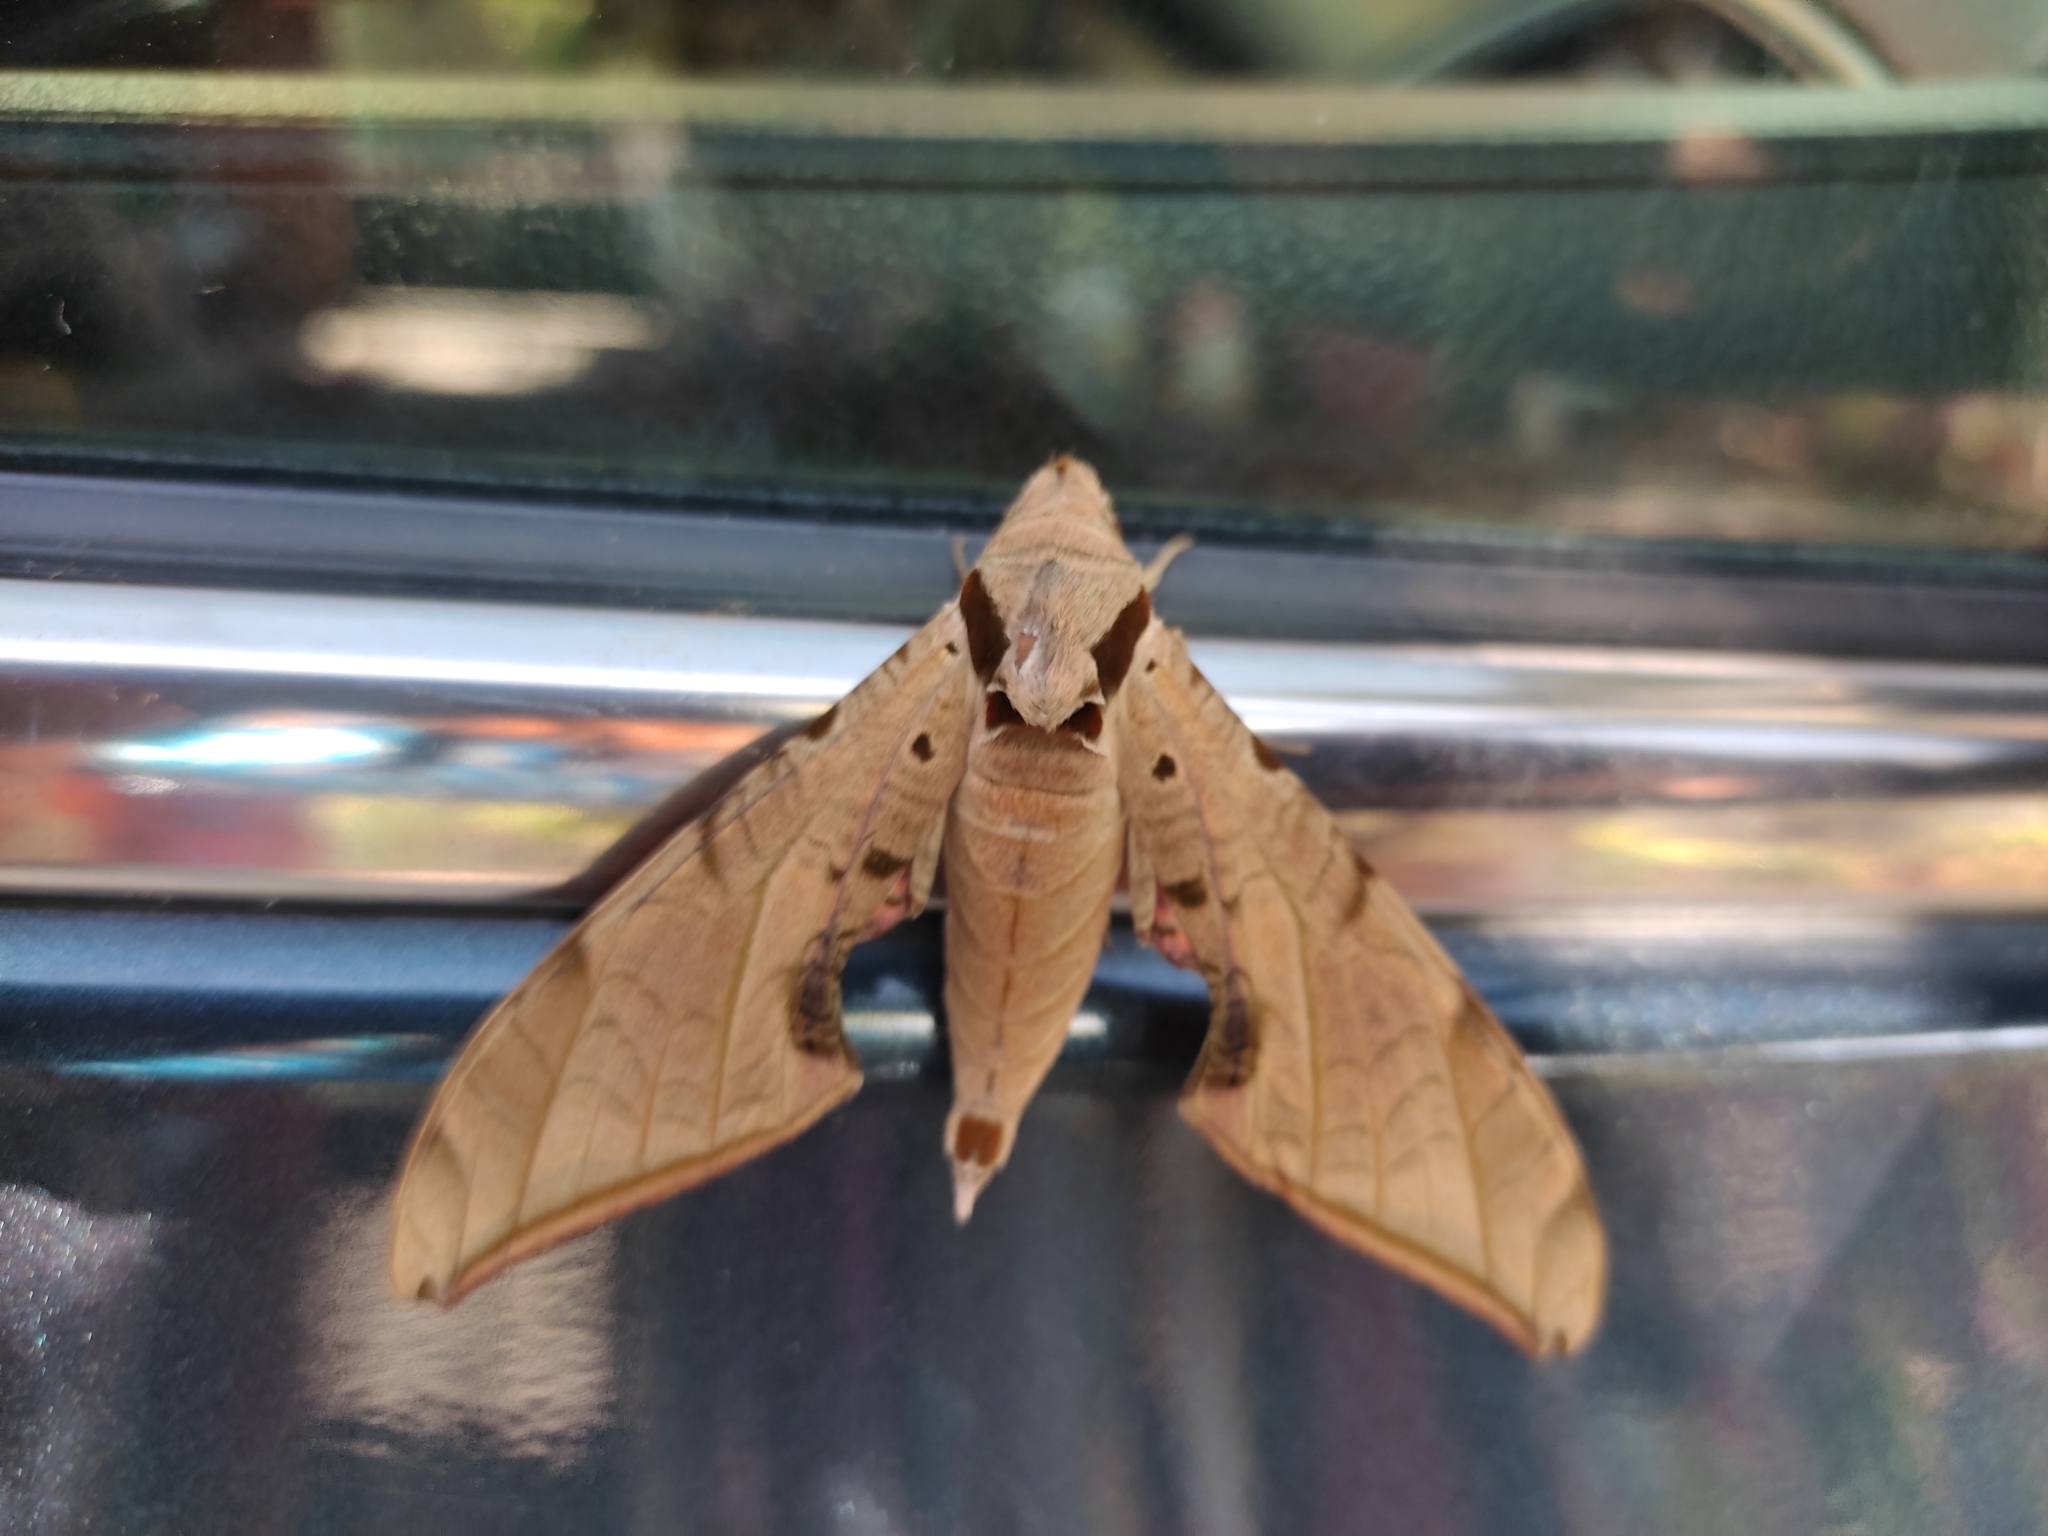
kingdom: Animalia
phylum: Arthropoda
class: Insecta
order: Lepidoptera
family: Sphingidae
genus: Protambulyx
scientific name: Protambulyx strigilis
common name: Streaked sphinx
